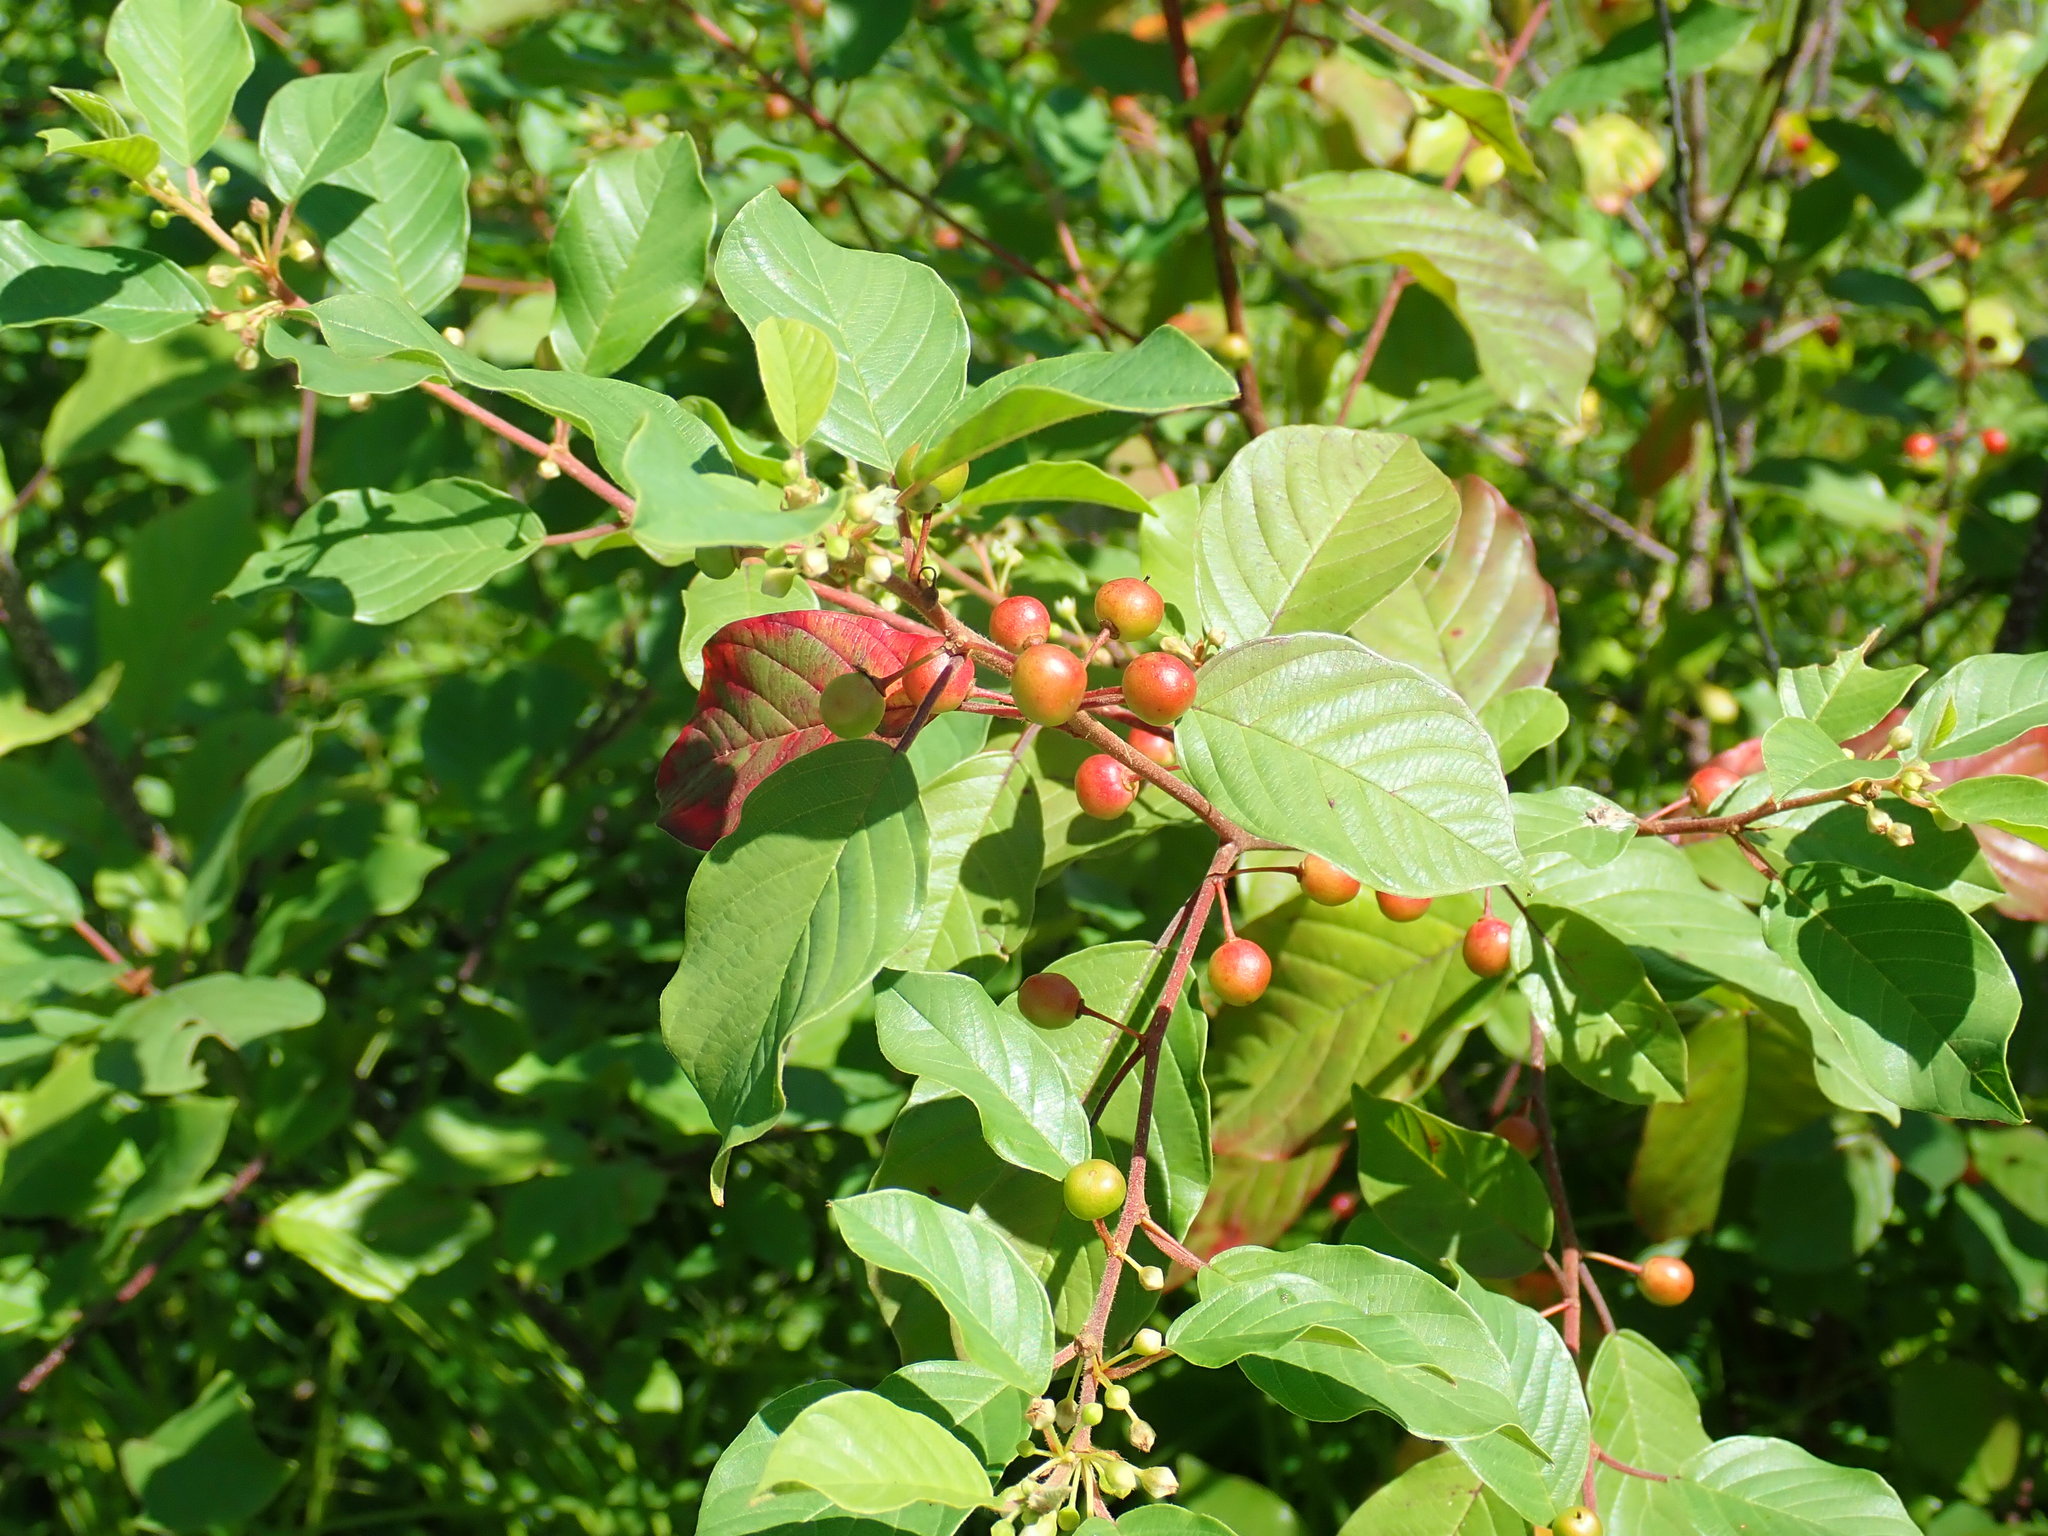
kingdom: Plantae
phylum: Tracheophyta
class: Magnoliopsida
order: Rosales
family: Rhamnaceae
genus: Frangula
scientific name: Frangula alnus
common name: Alder buckthorn
